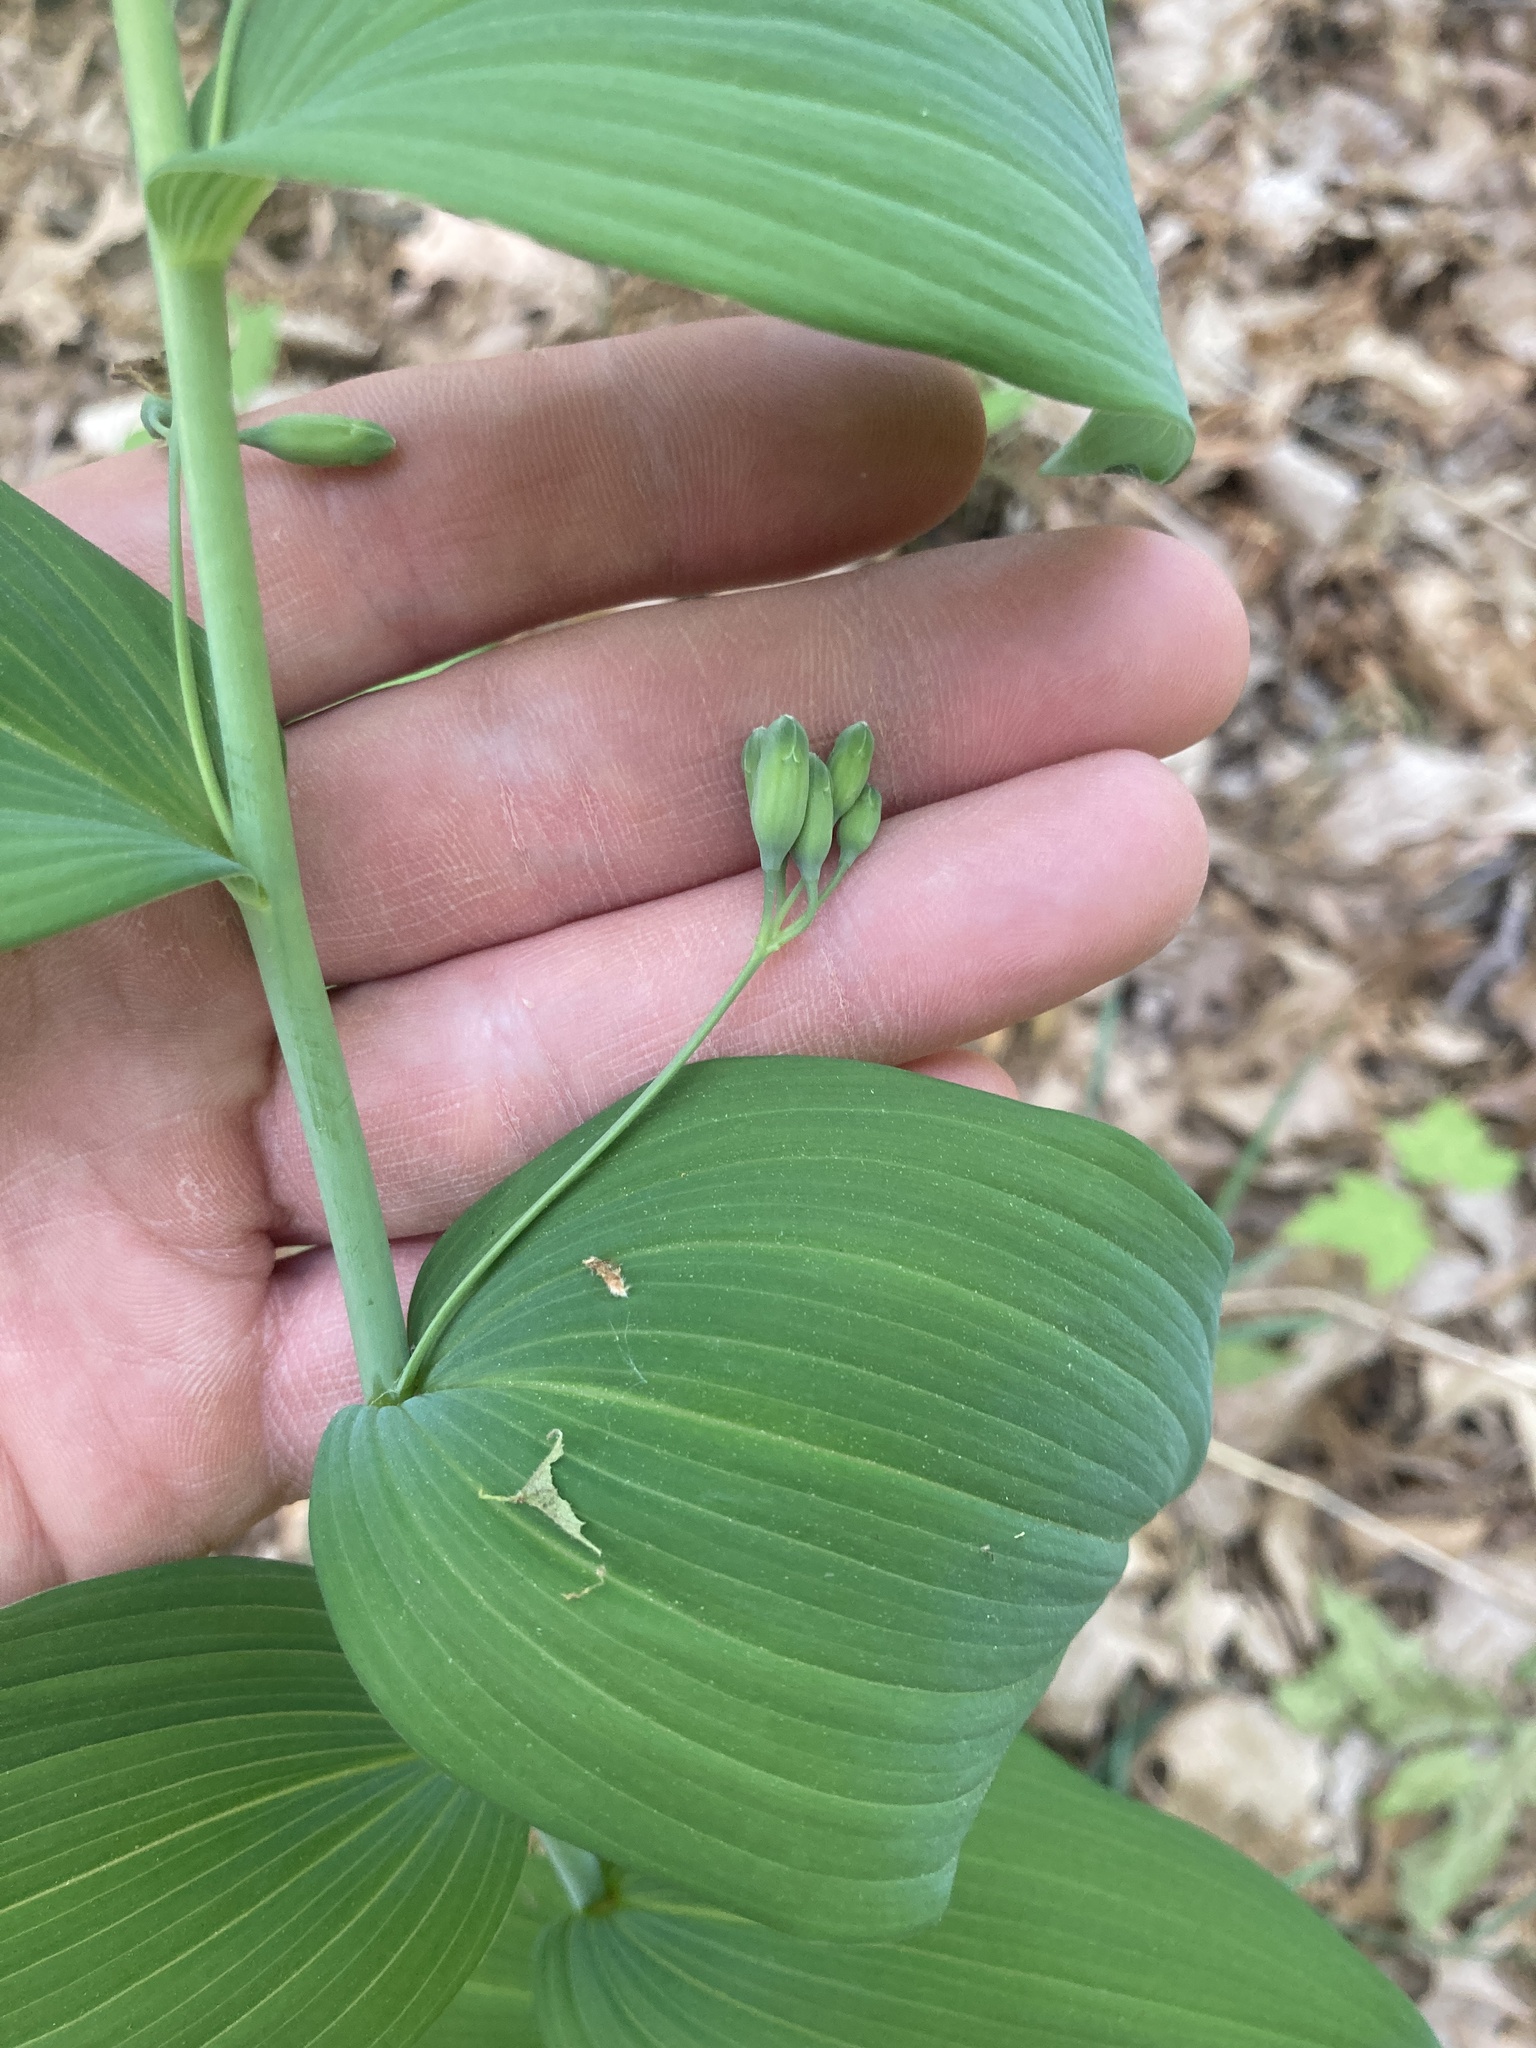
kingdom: Plantae
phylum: Tracheophyta
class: Liliopsida
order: Asparagales
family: Asparagaceae
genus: Polygonatum
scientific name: Polygonatum biflorum
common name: American solomon's-seal
